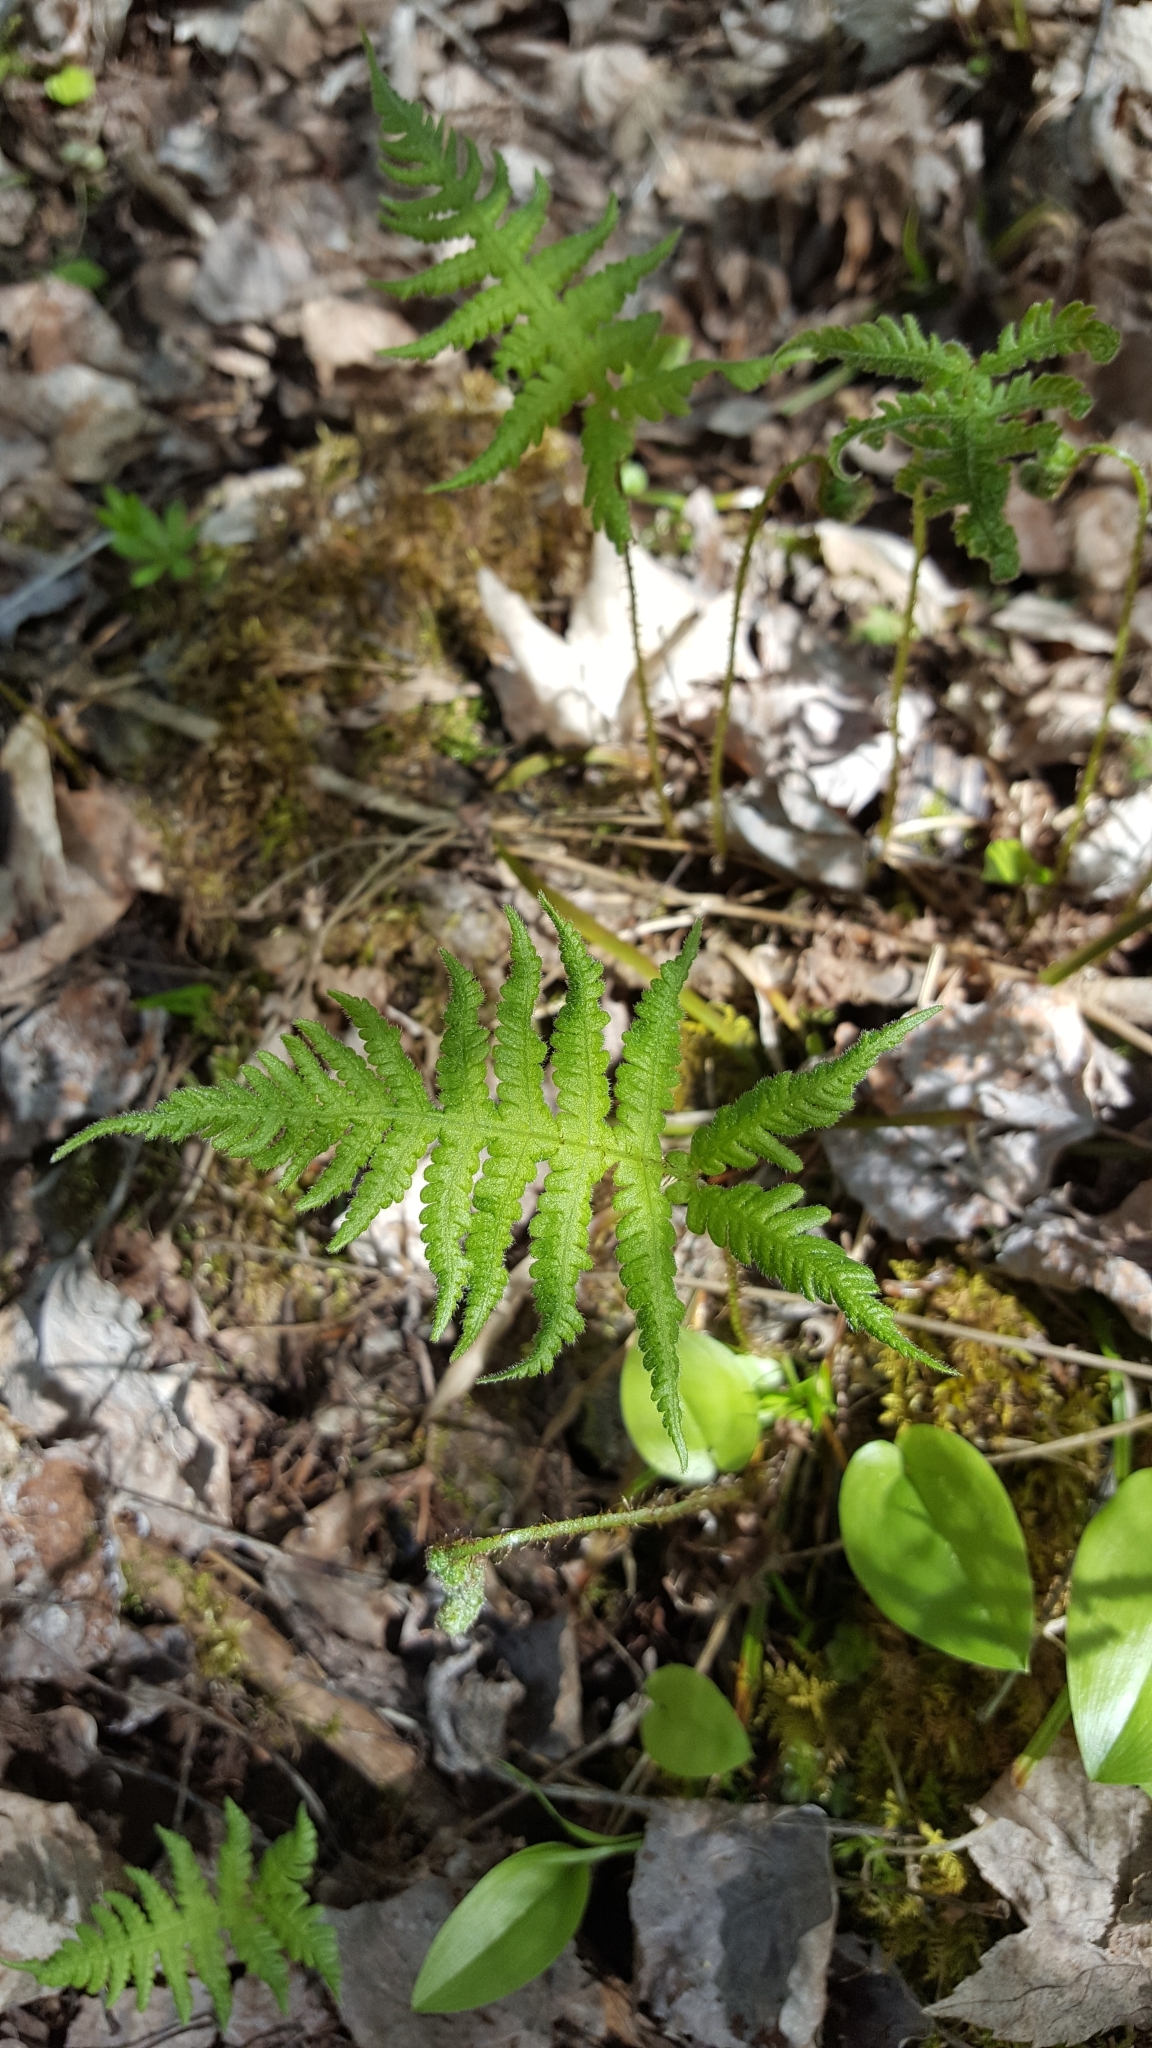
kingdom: Plantae
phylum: Tracheophyta
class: Polypodiopsida
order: Polypodiales
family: Thelypteridaceae
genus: Phegopteris
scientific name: Phegopteris connectilis
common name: Beech fern
